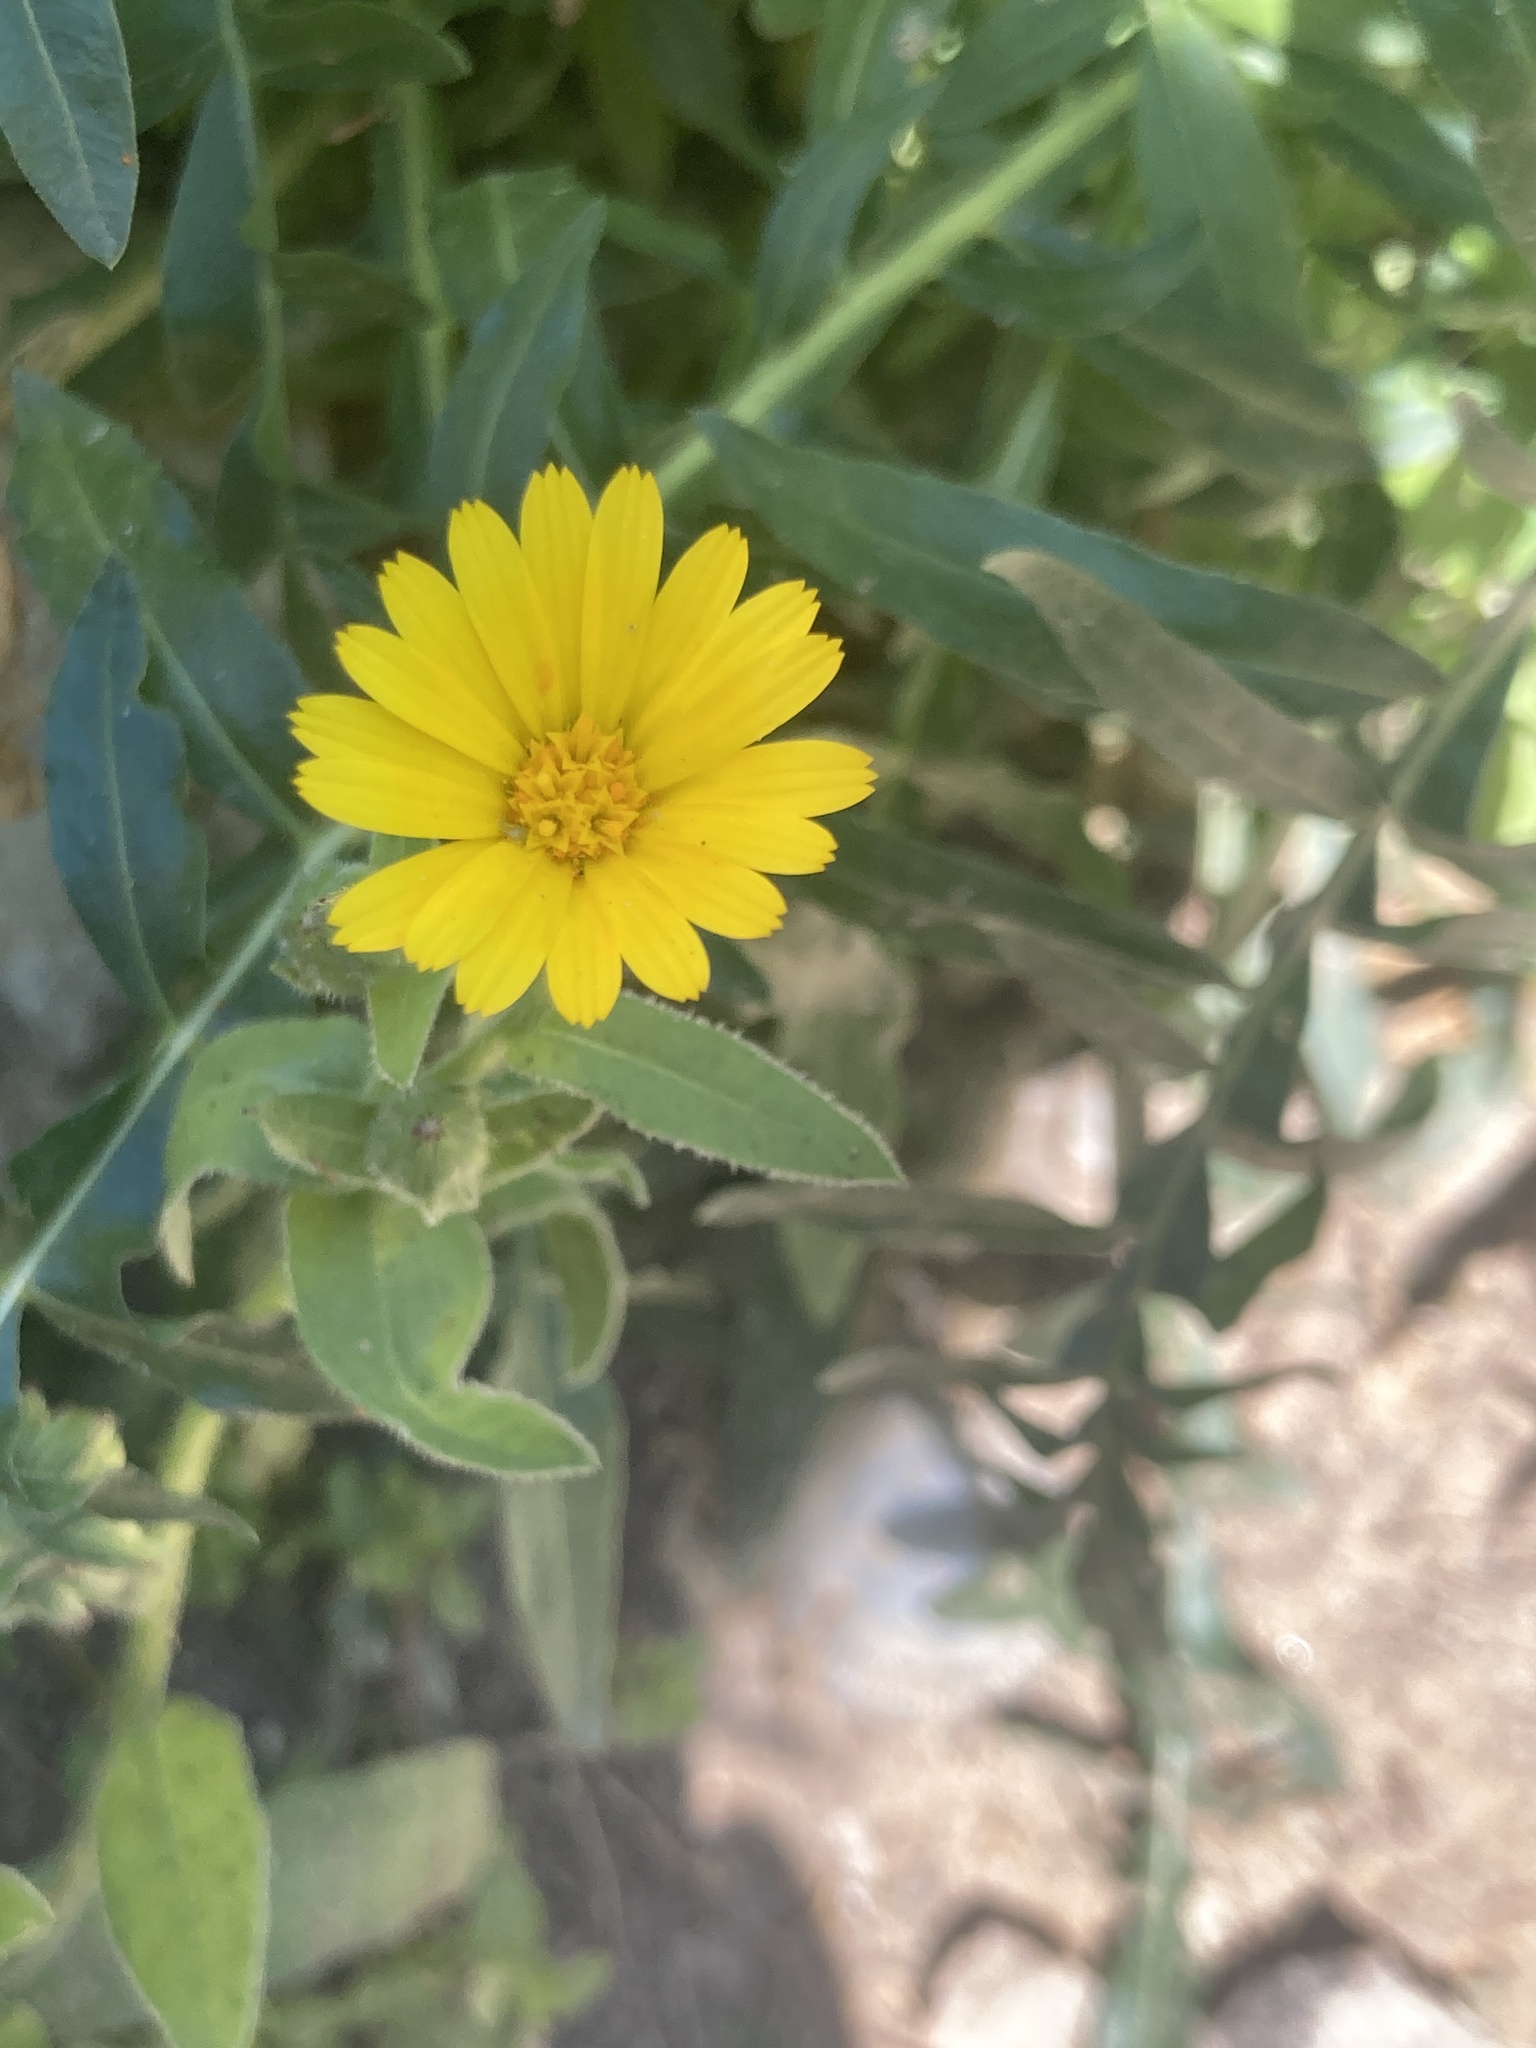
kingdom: Plantae
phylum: Tracheophyta
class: Magnoliopsida
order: Asterales
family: Asteraceae
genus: Calendula
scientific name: Calendula arvensis
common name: Field marigold
